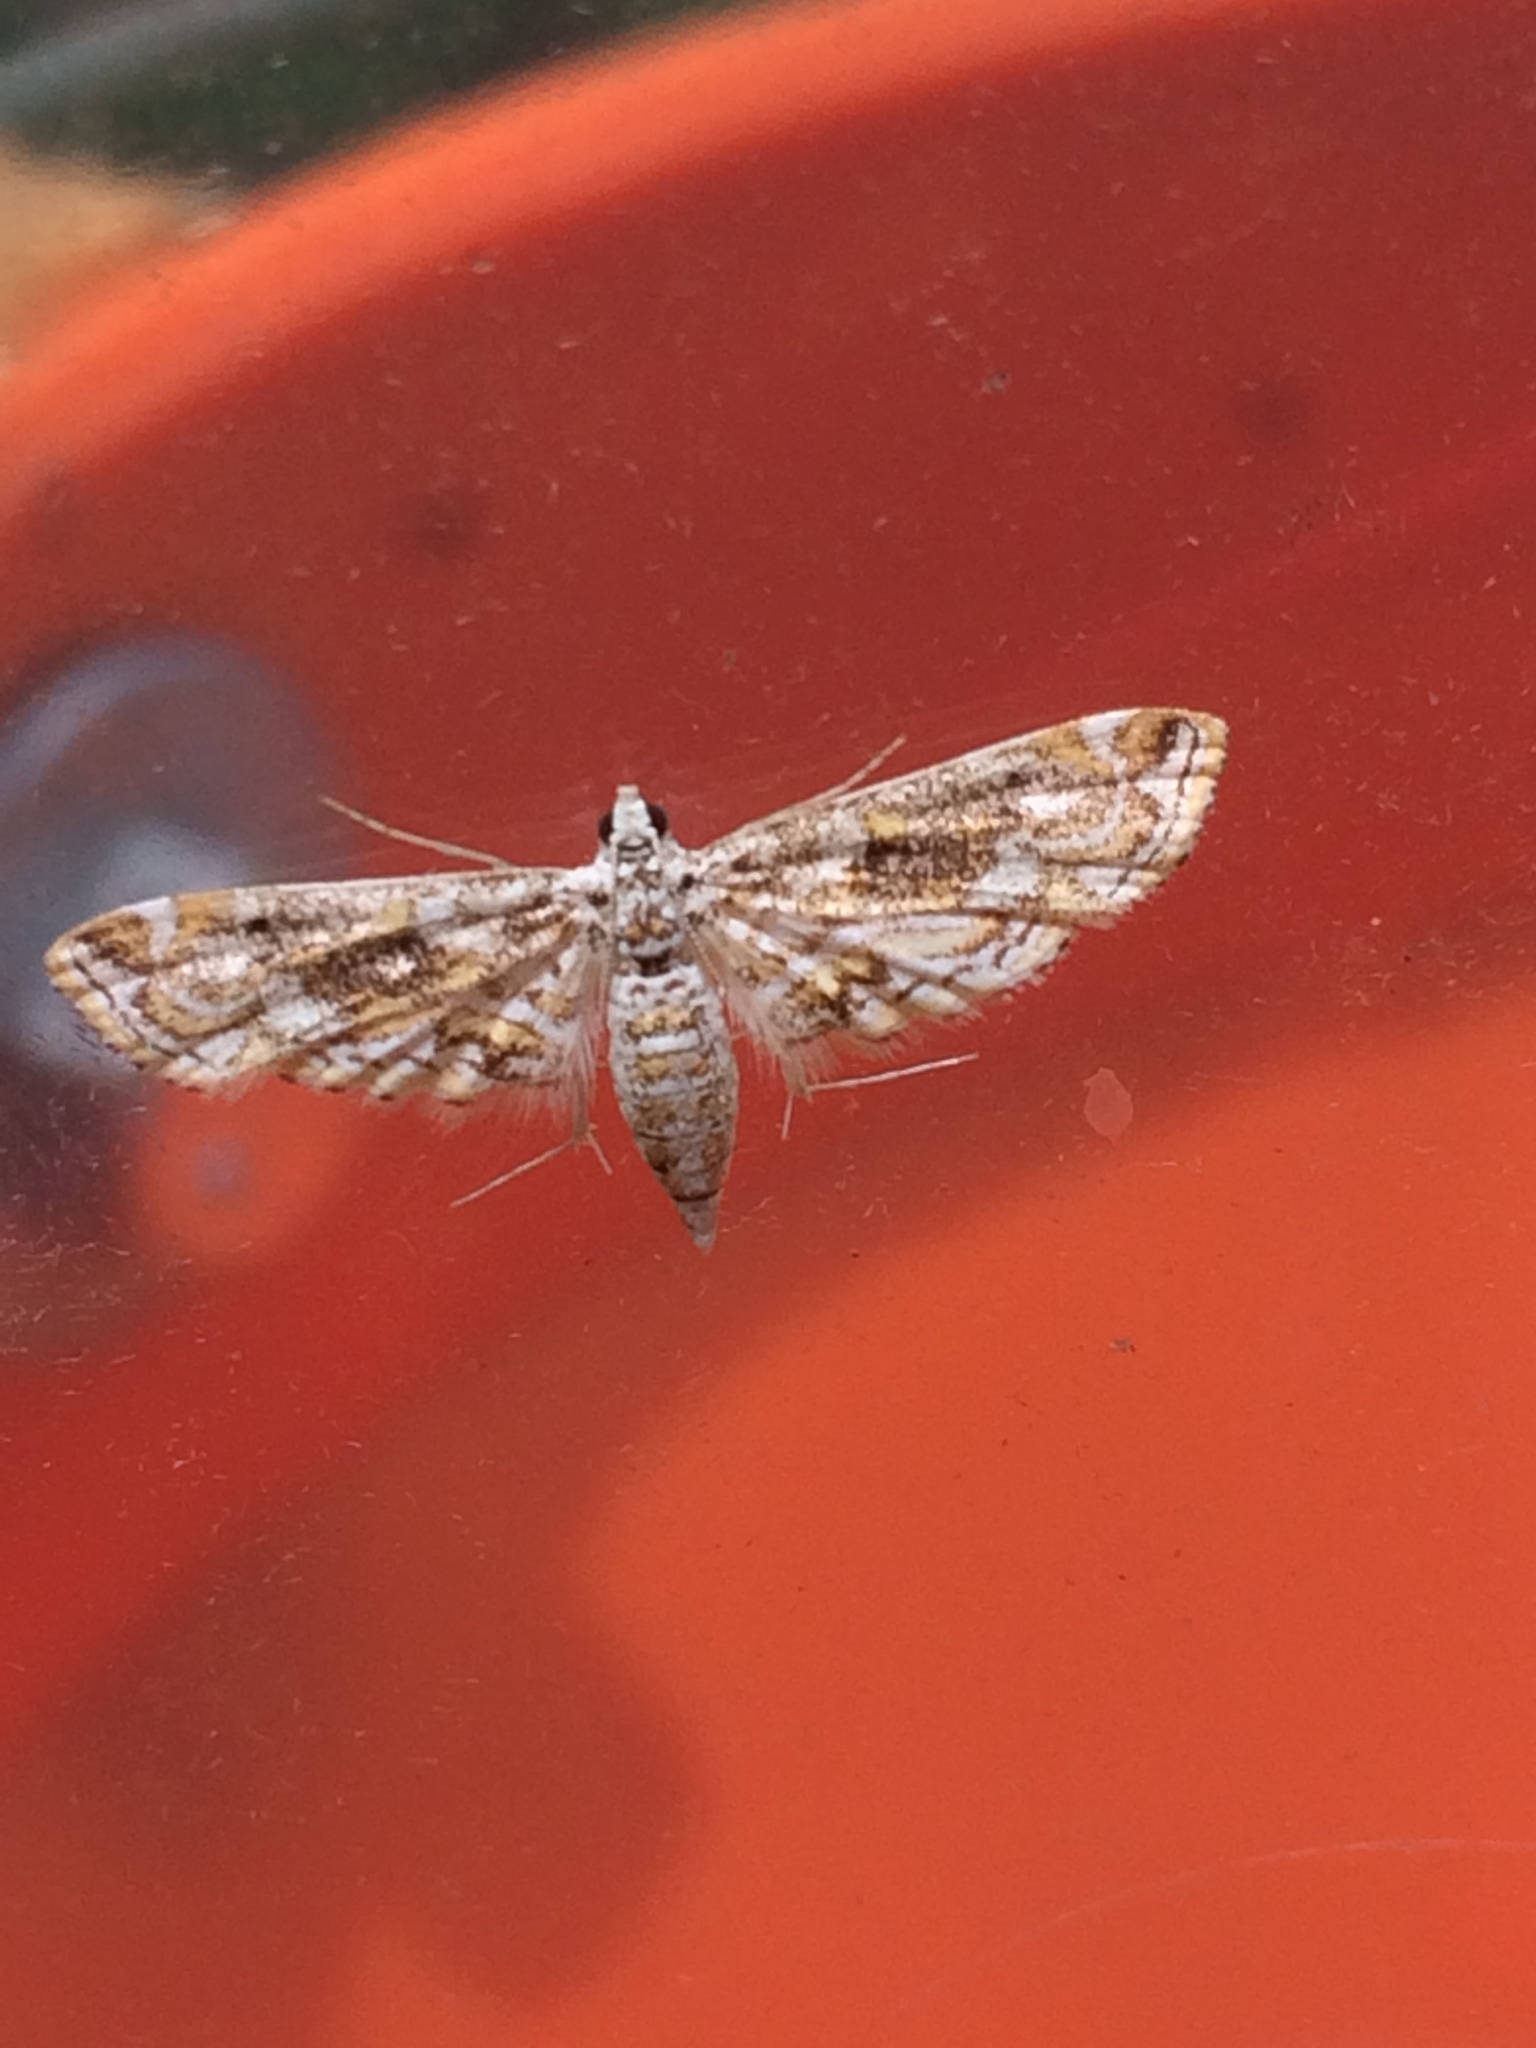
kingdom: Animalia
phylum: Arthropoda
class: Insecta
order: Lepidoptera
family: Crambidae
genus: Parapoynx
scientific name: Parapoynx diminutalis
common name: Hydrilla leafcutter
